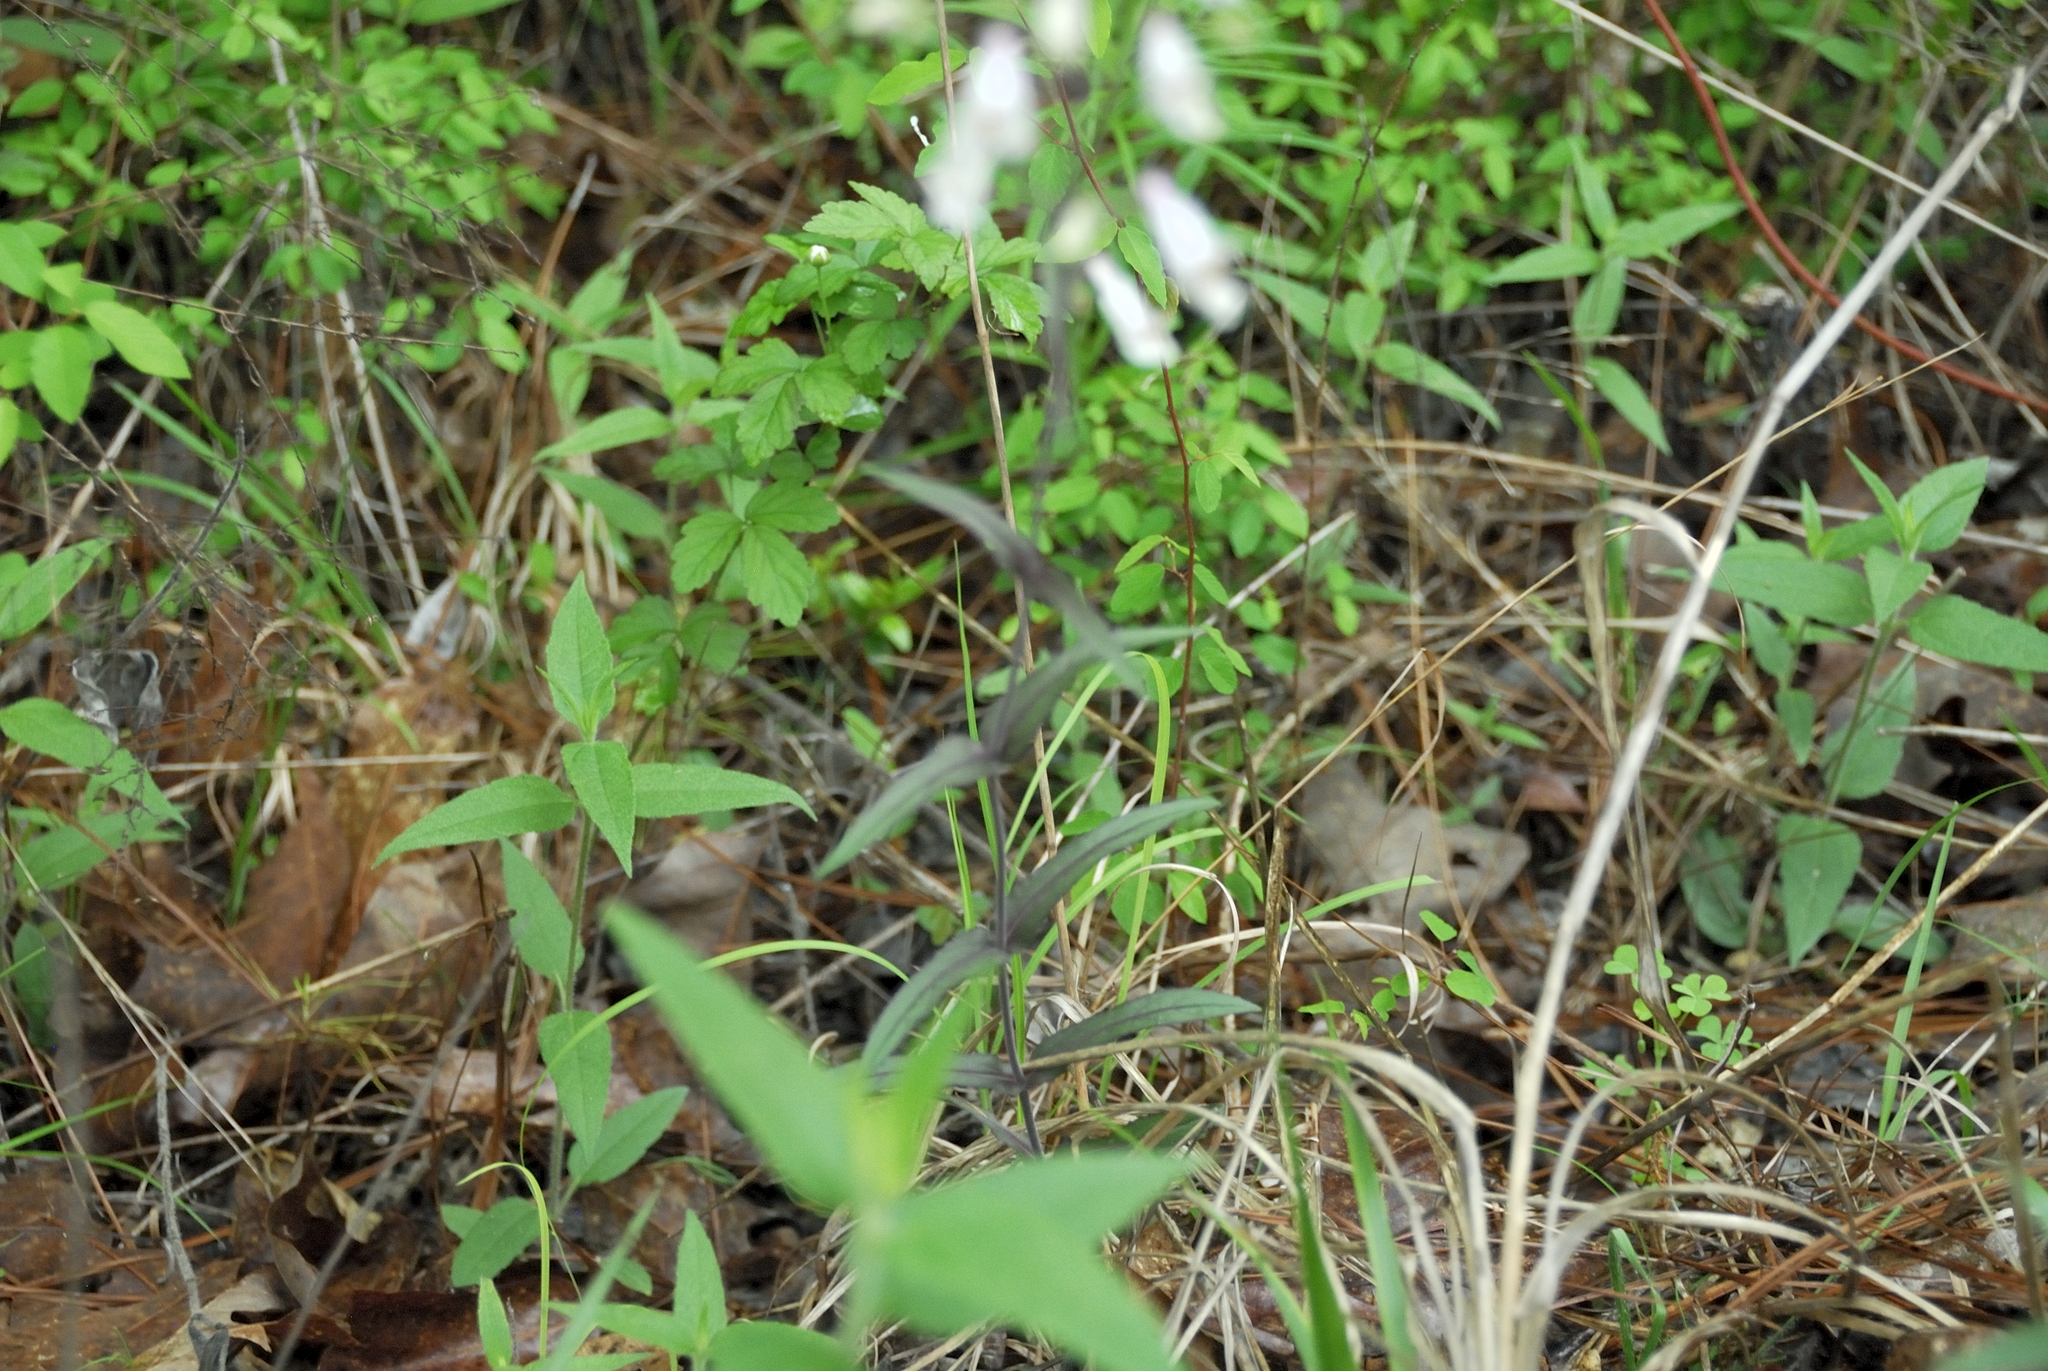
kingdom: Plantae
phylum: Tracheophyta
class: Magnoliopsida
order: Lamiales
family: Plantaginaceae
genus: Penstemon
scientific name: Penstemon laxiflorus
